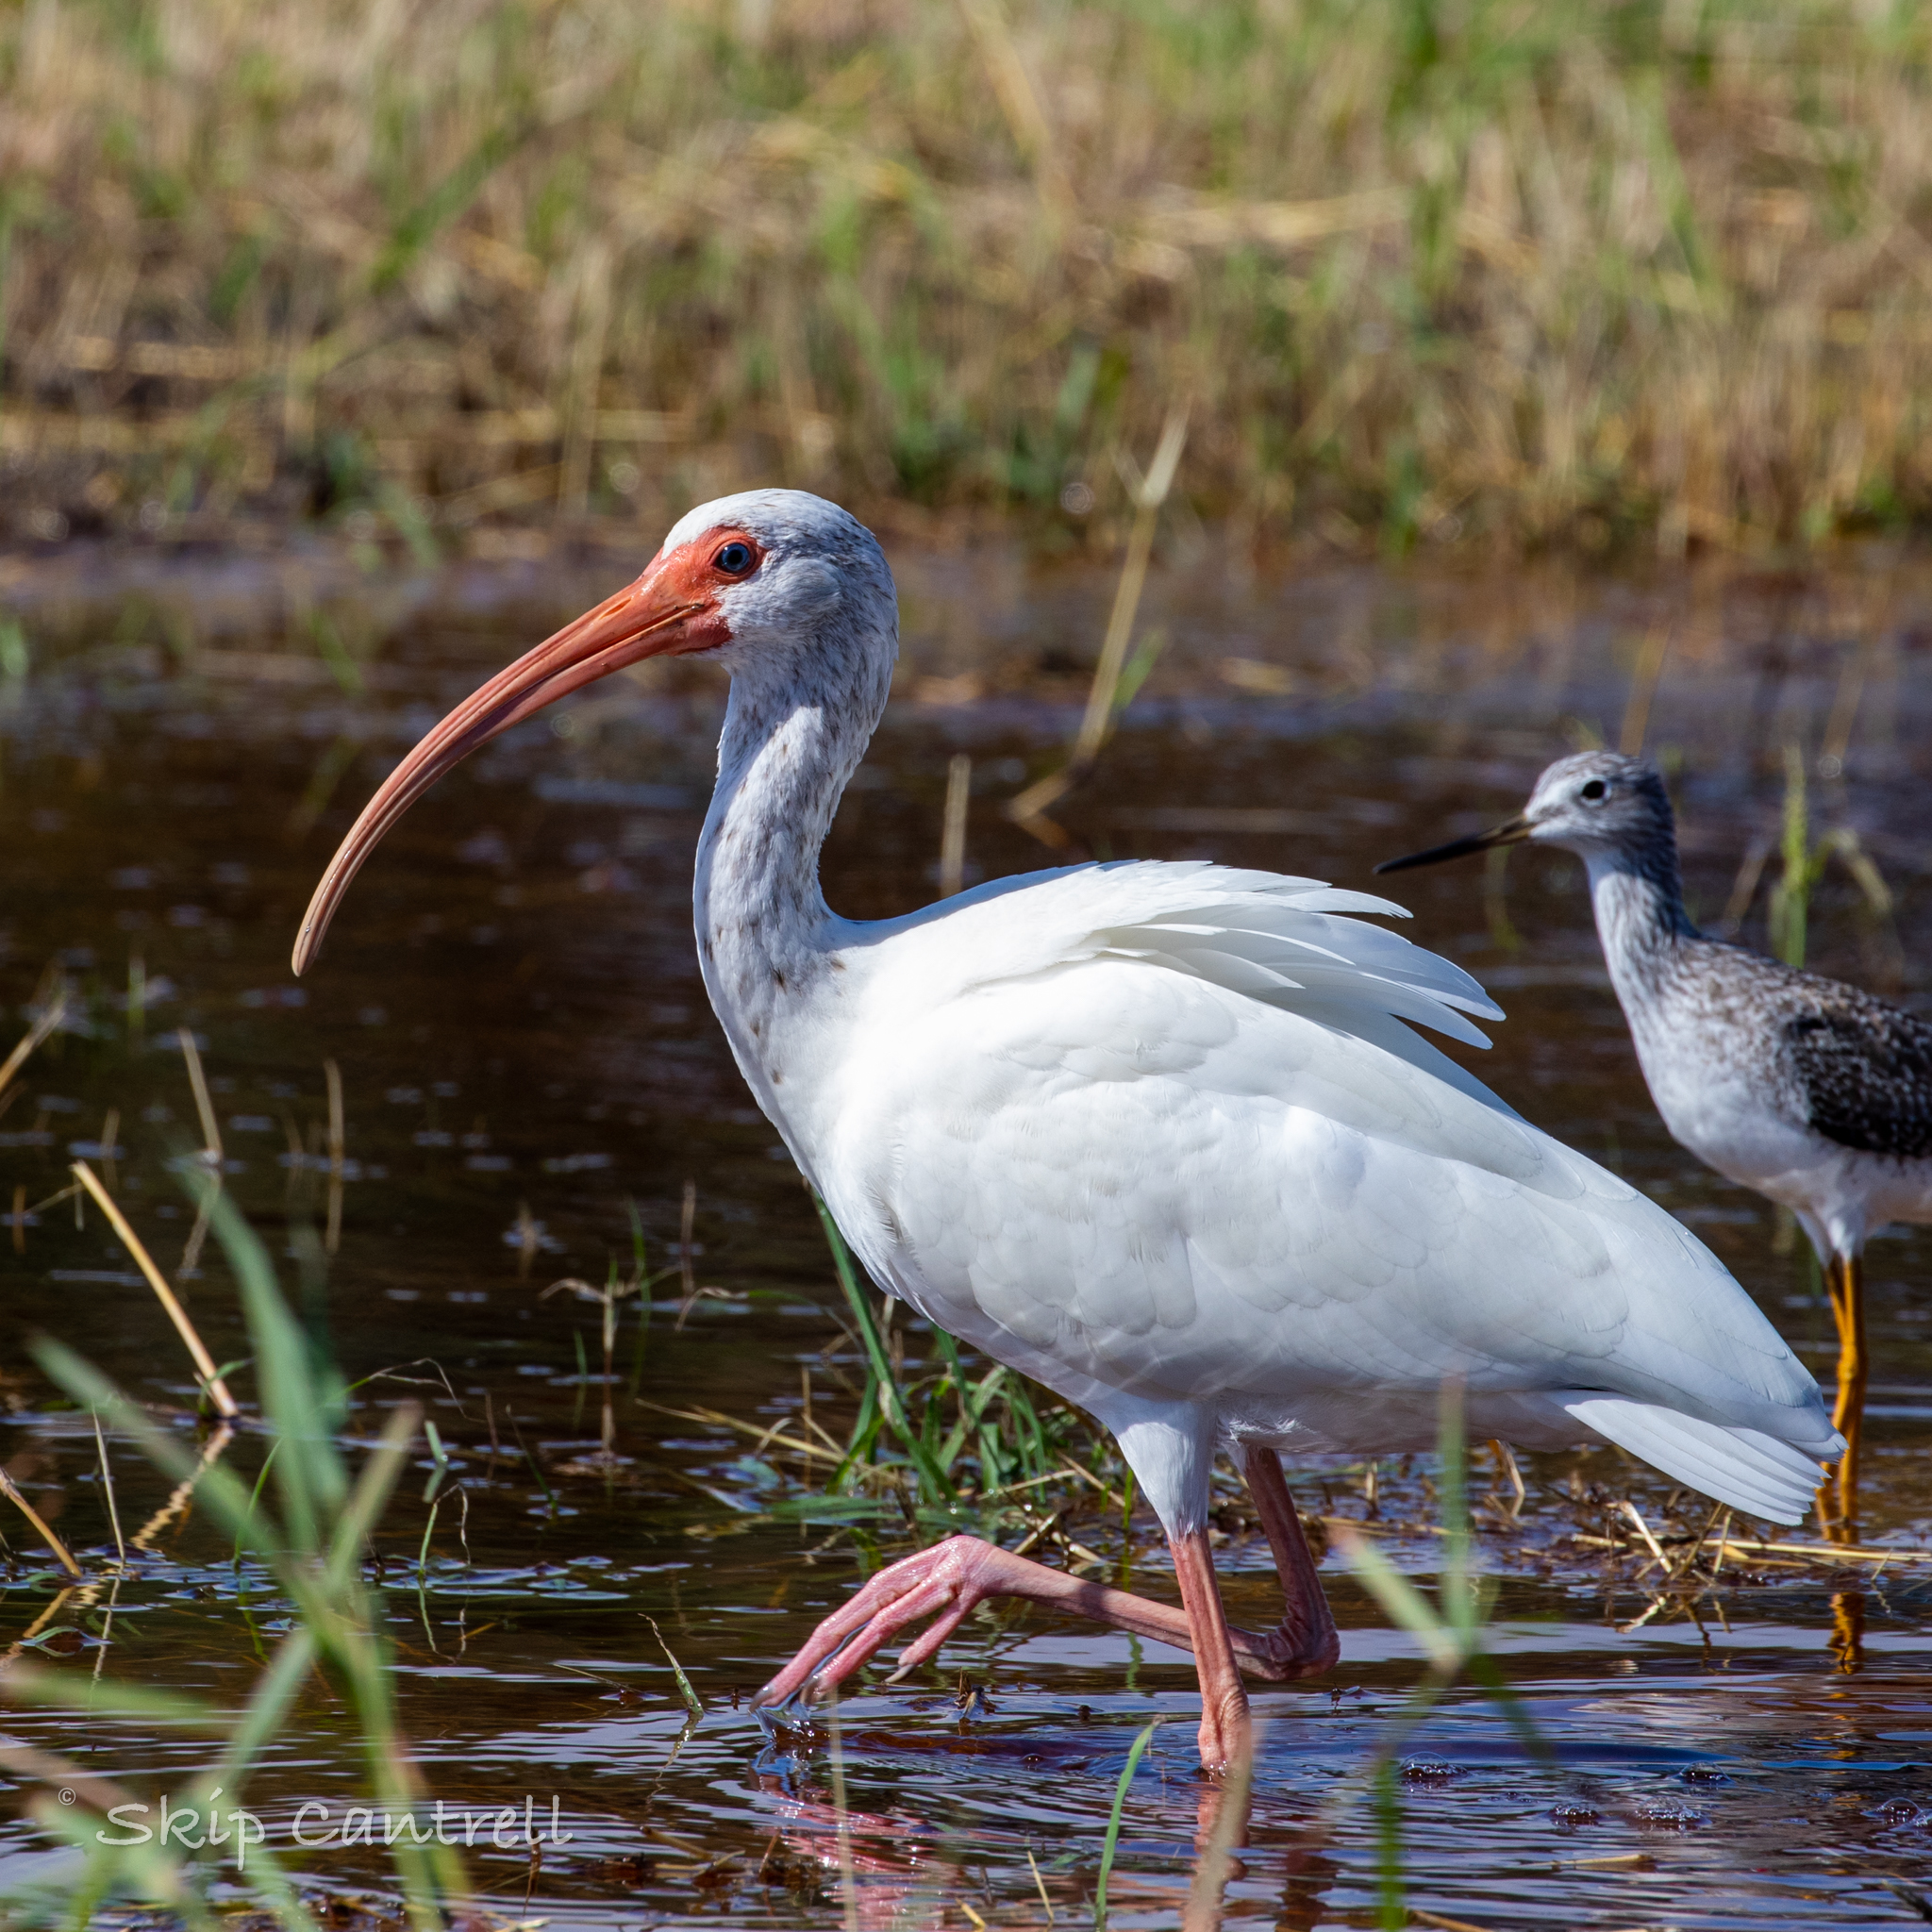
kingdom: Animalia
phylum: Chordata
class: Aves
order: Pelecaniformes
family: Threskiornithidae
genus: Eudocimus
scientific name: Eudocimus albus
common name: White ibis
